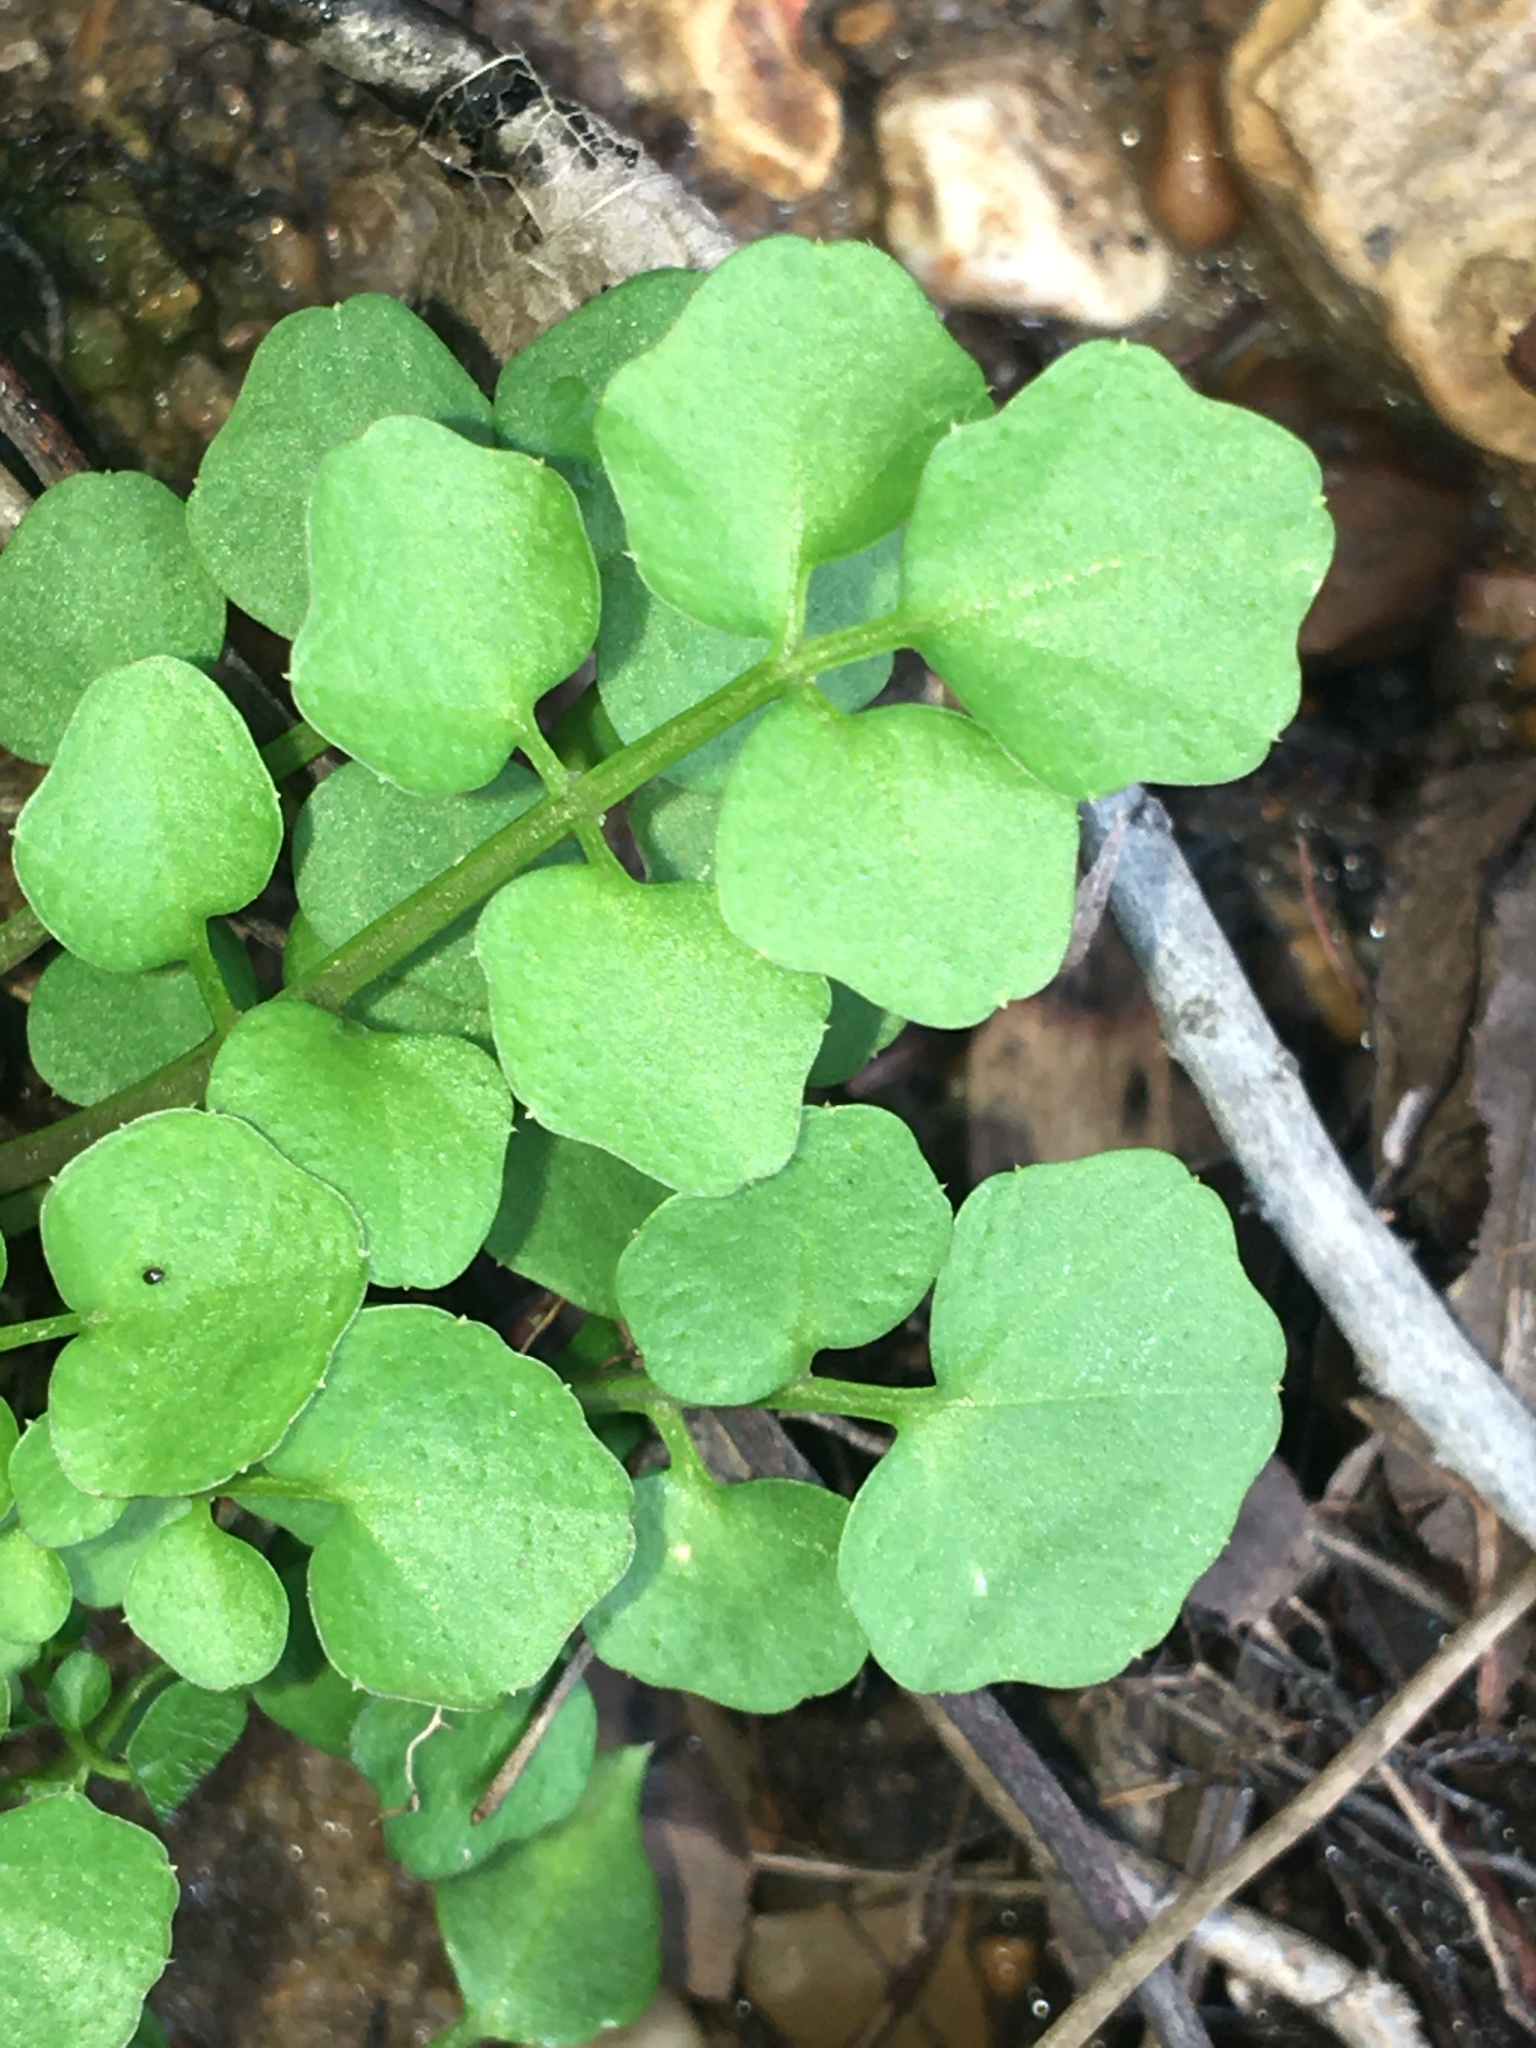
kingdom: Plantae
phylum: Tracheophyta
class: Magnoliopsida
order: Brassicales
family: Brassicaceae
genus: Cardamine
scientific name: Cardamine hirsuta
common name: Hairy bittercress
